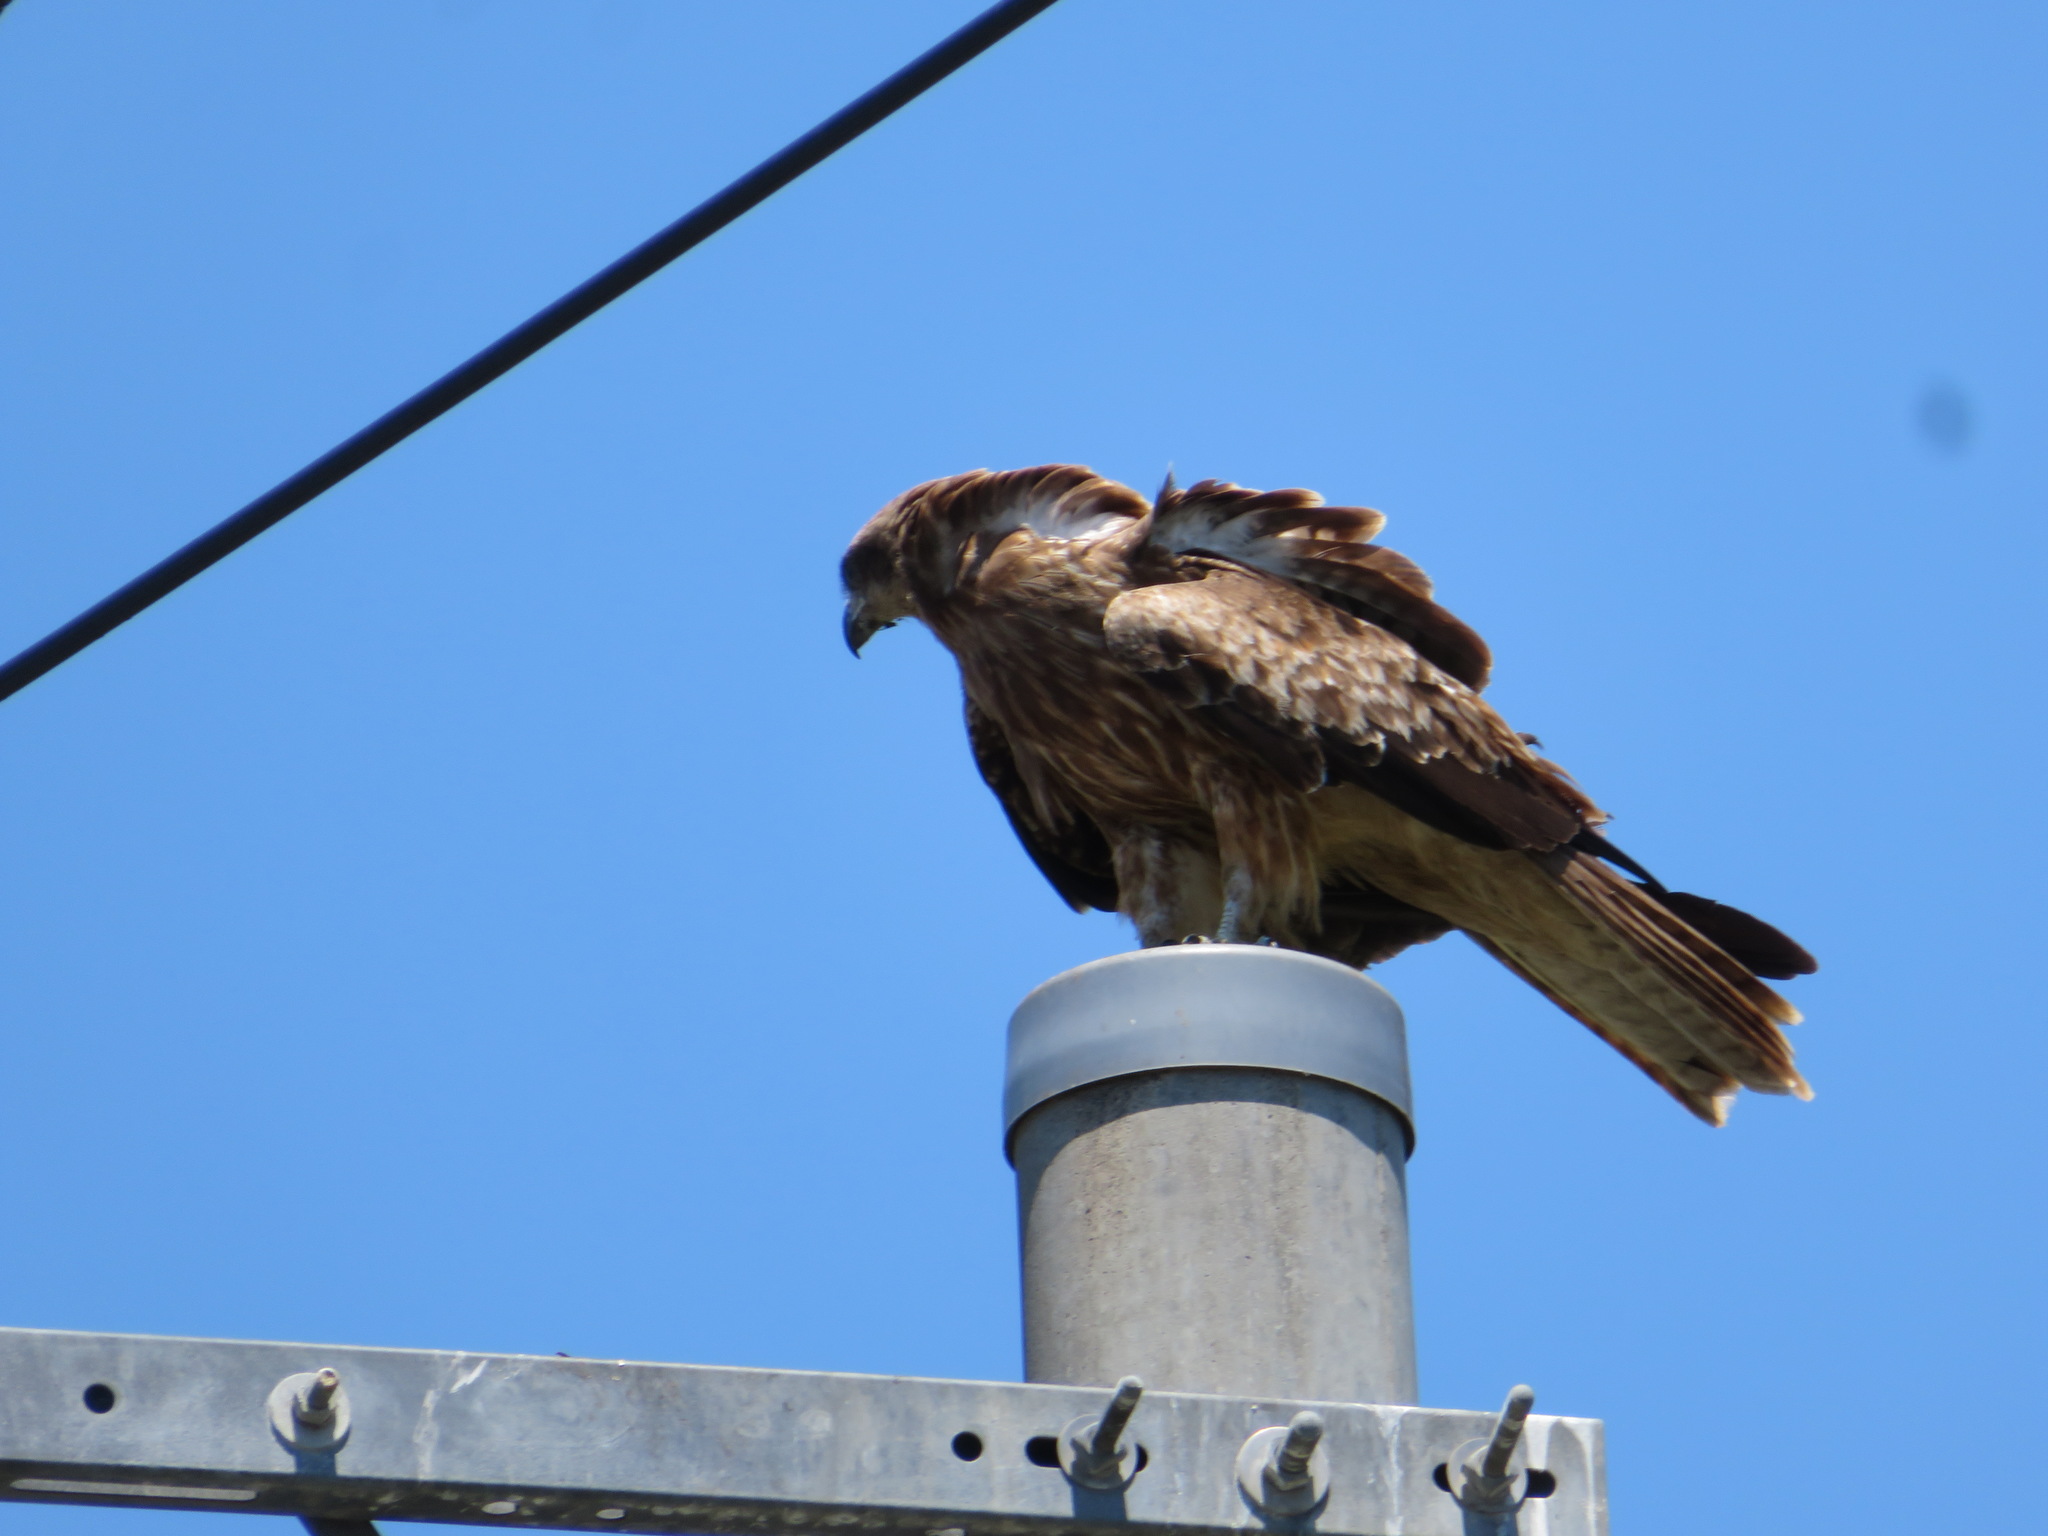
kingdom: Animalia
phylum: Chordata
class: Aves
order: Accipitriformes
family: Accipitridae
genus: Milvus
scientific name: Milvus migrans
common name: Black kite
